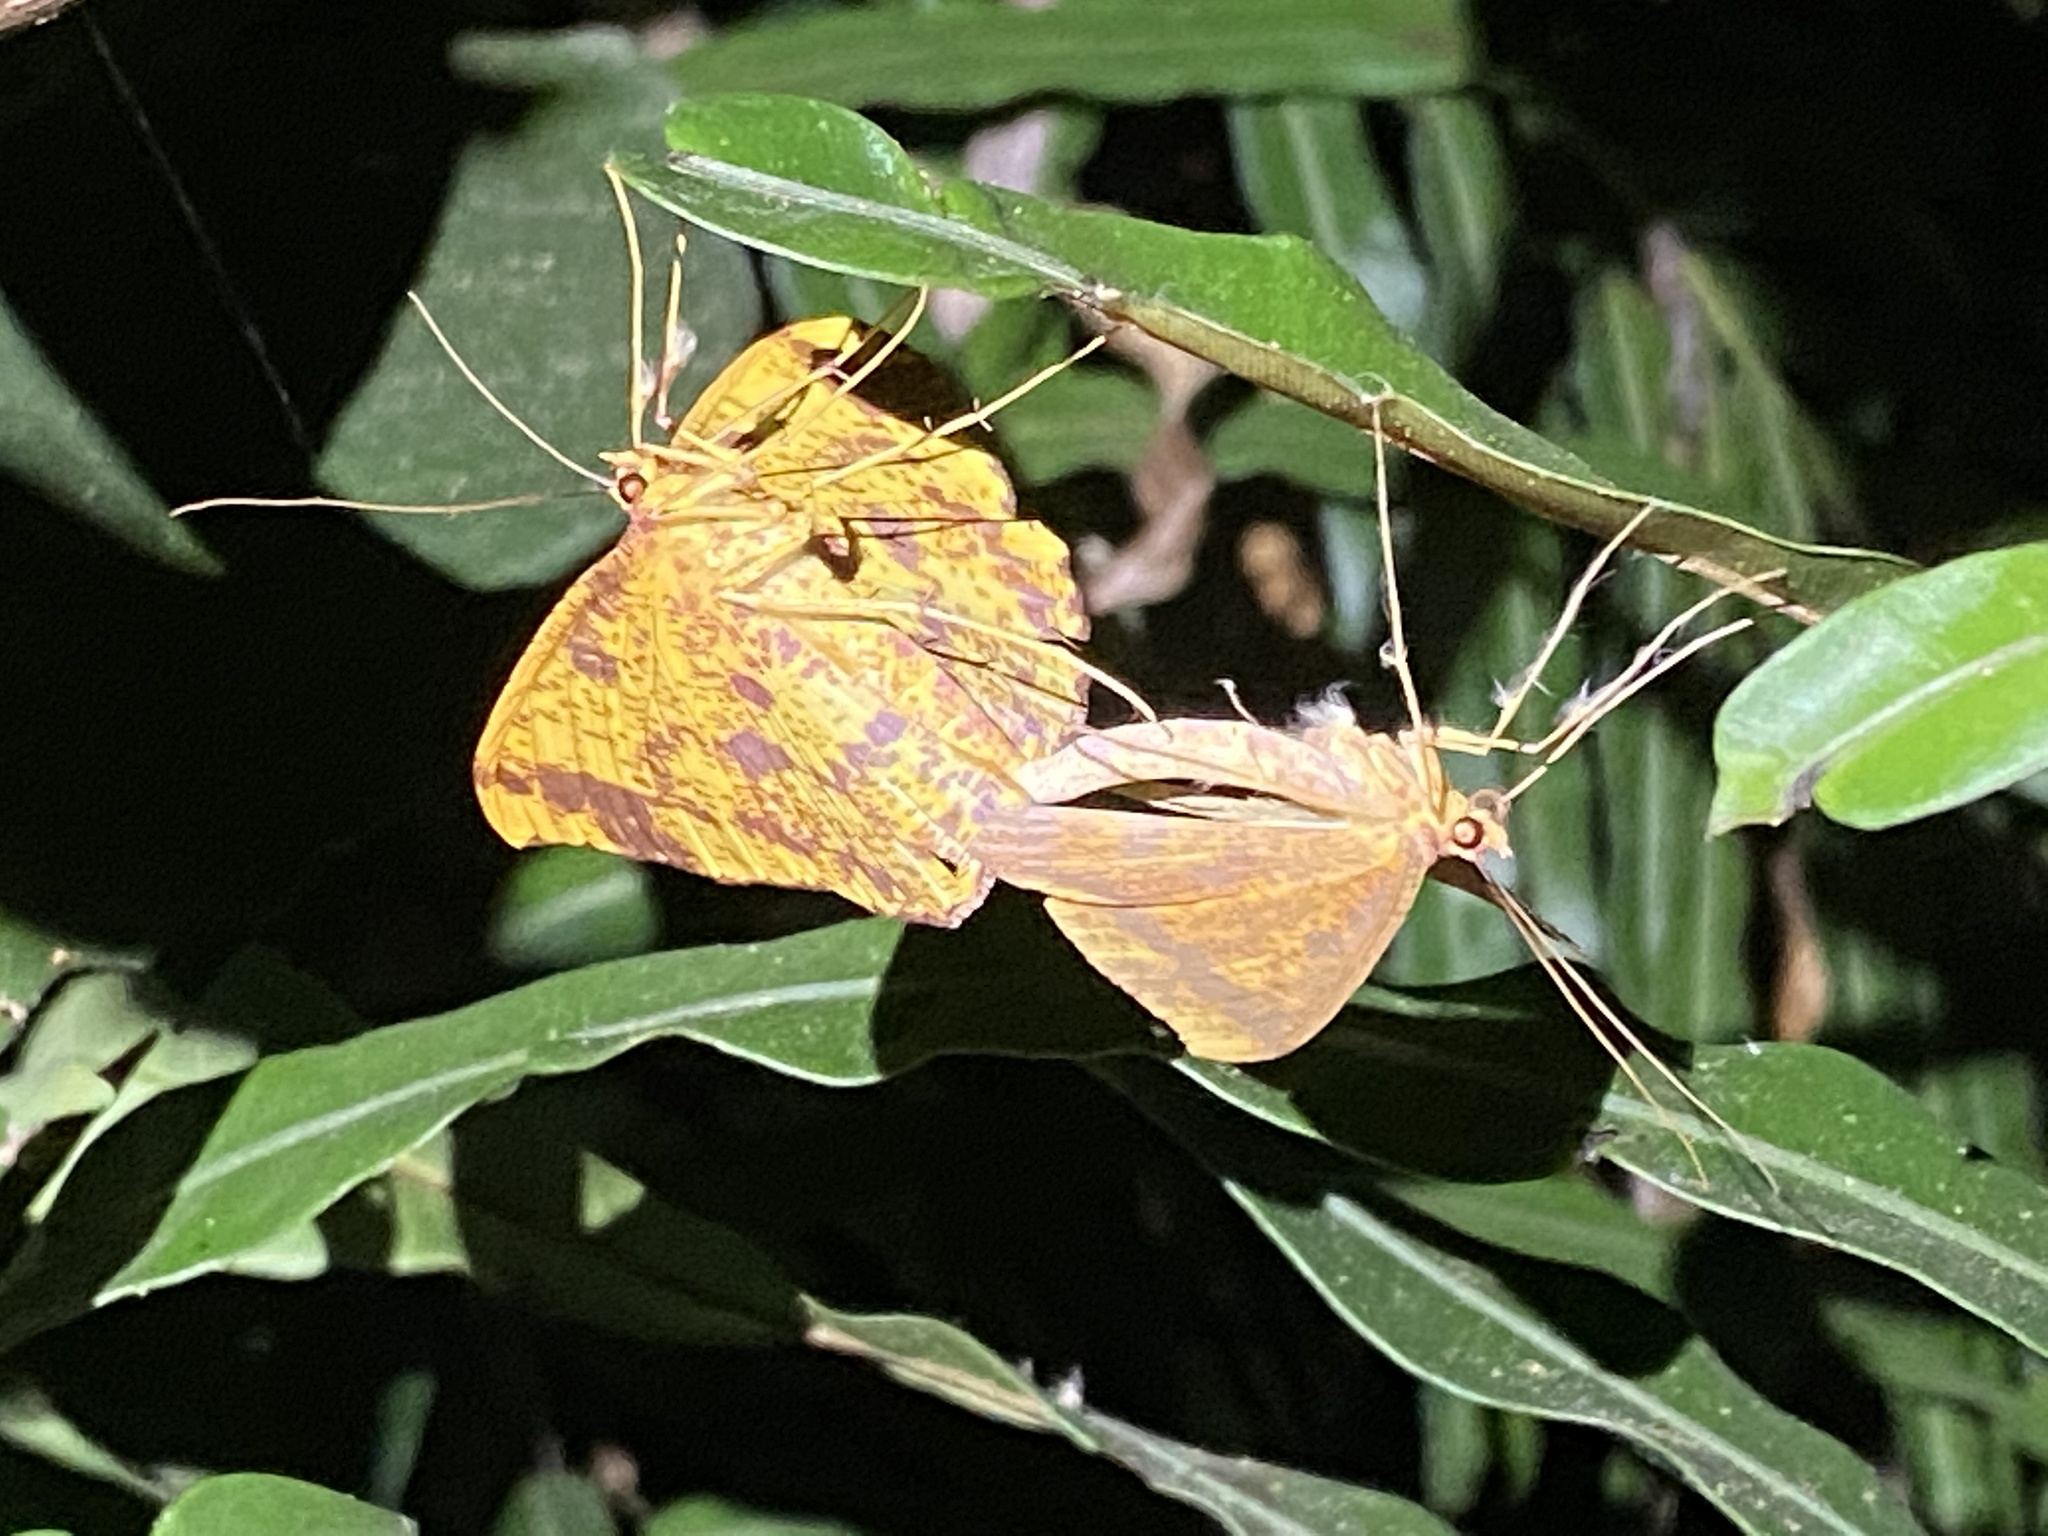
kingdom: Animalia
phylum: Arthropoda
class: Insecta
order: Lepidoptera
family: Geometridae
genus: Eumelea
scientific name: Eumelea ludovicata
